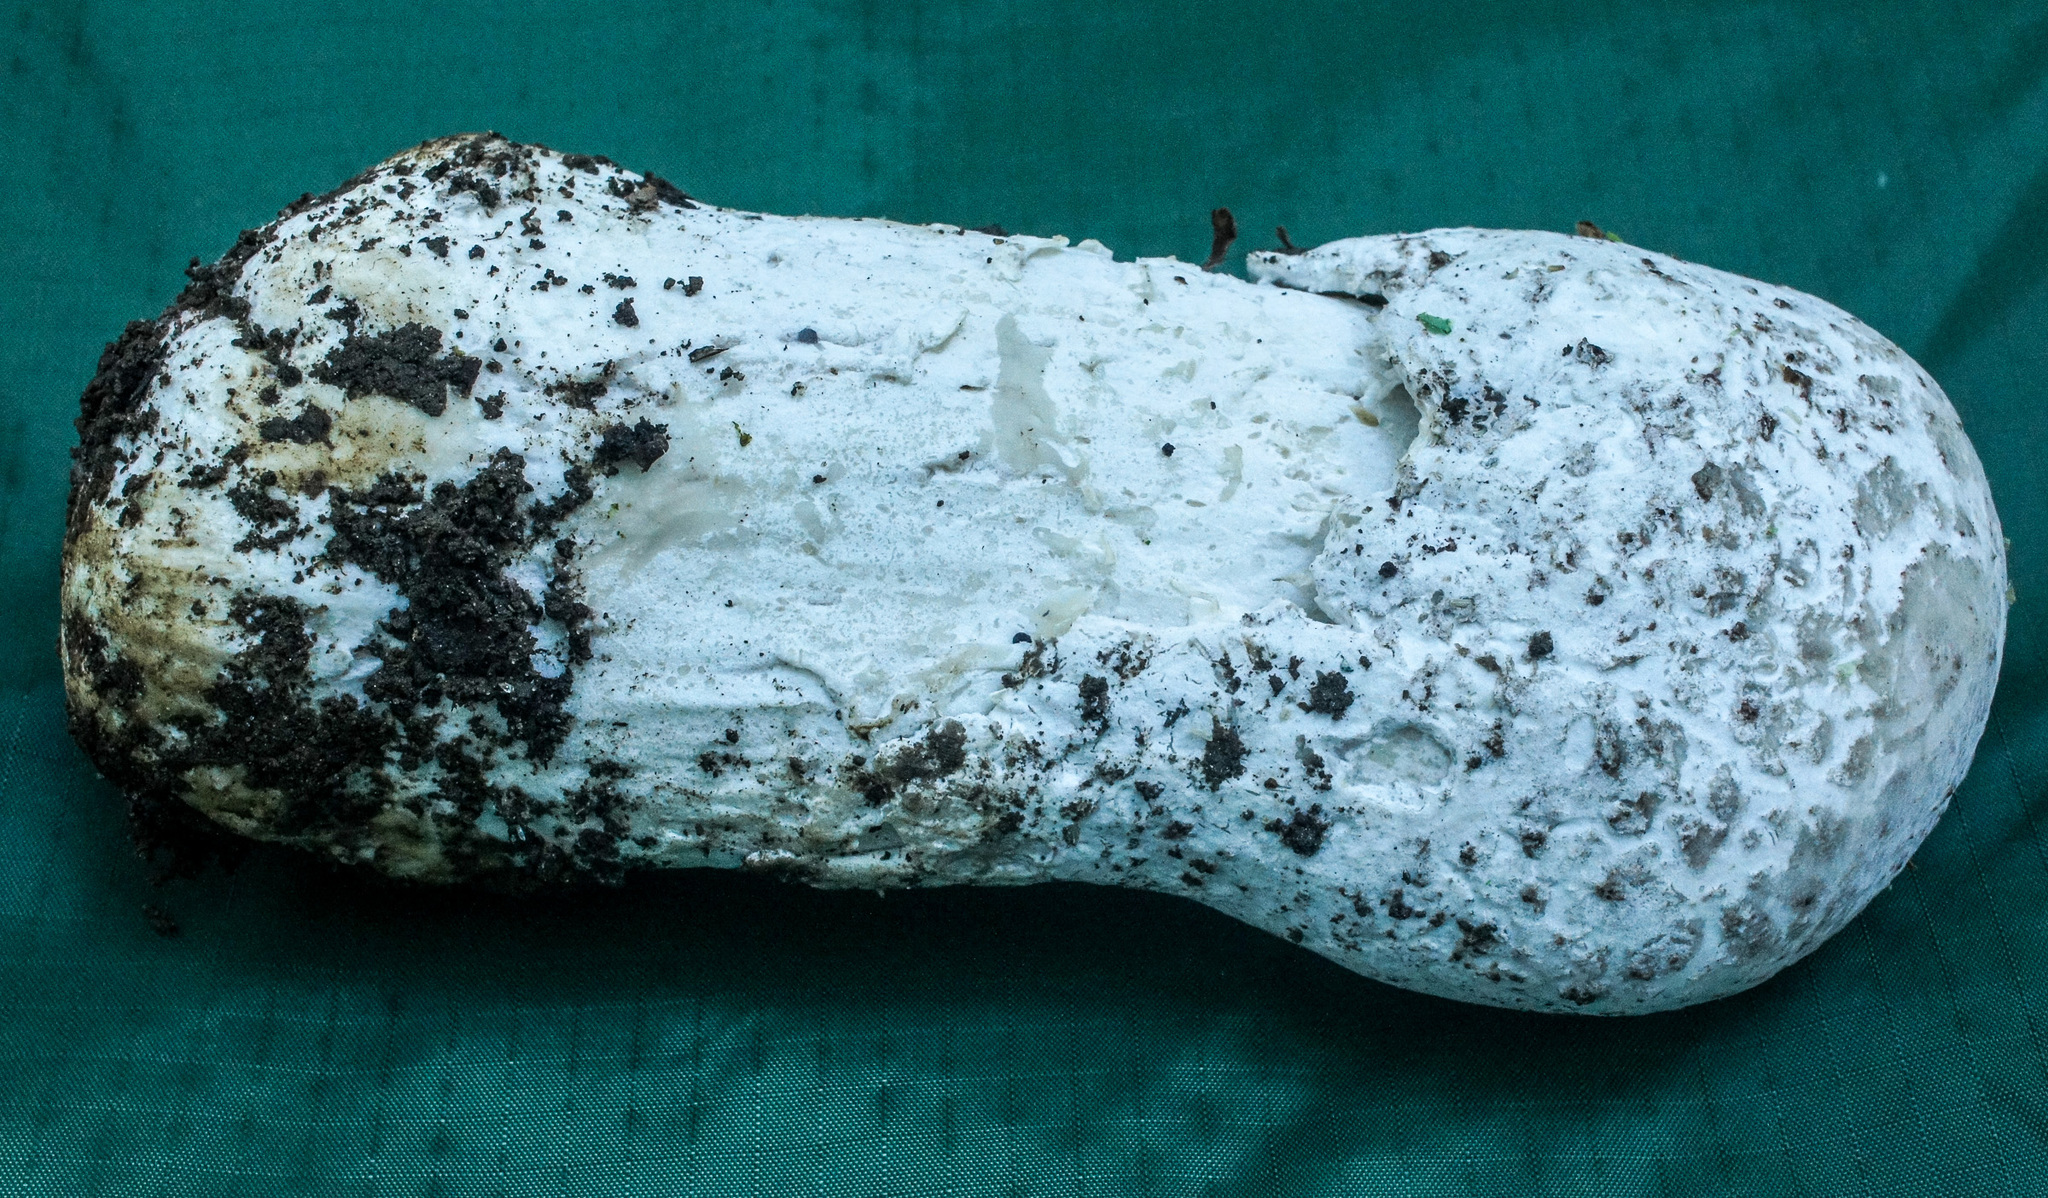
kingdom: Fungi
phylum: Ascomycota
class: Sordariomycetes
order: Hypocreales
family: Hypocreaceae
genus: Hypomyces
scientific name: Hypomyces hyalinus
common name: Amanita mold
